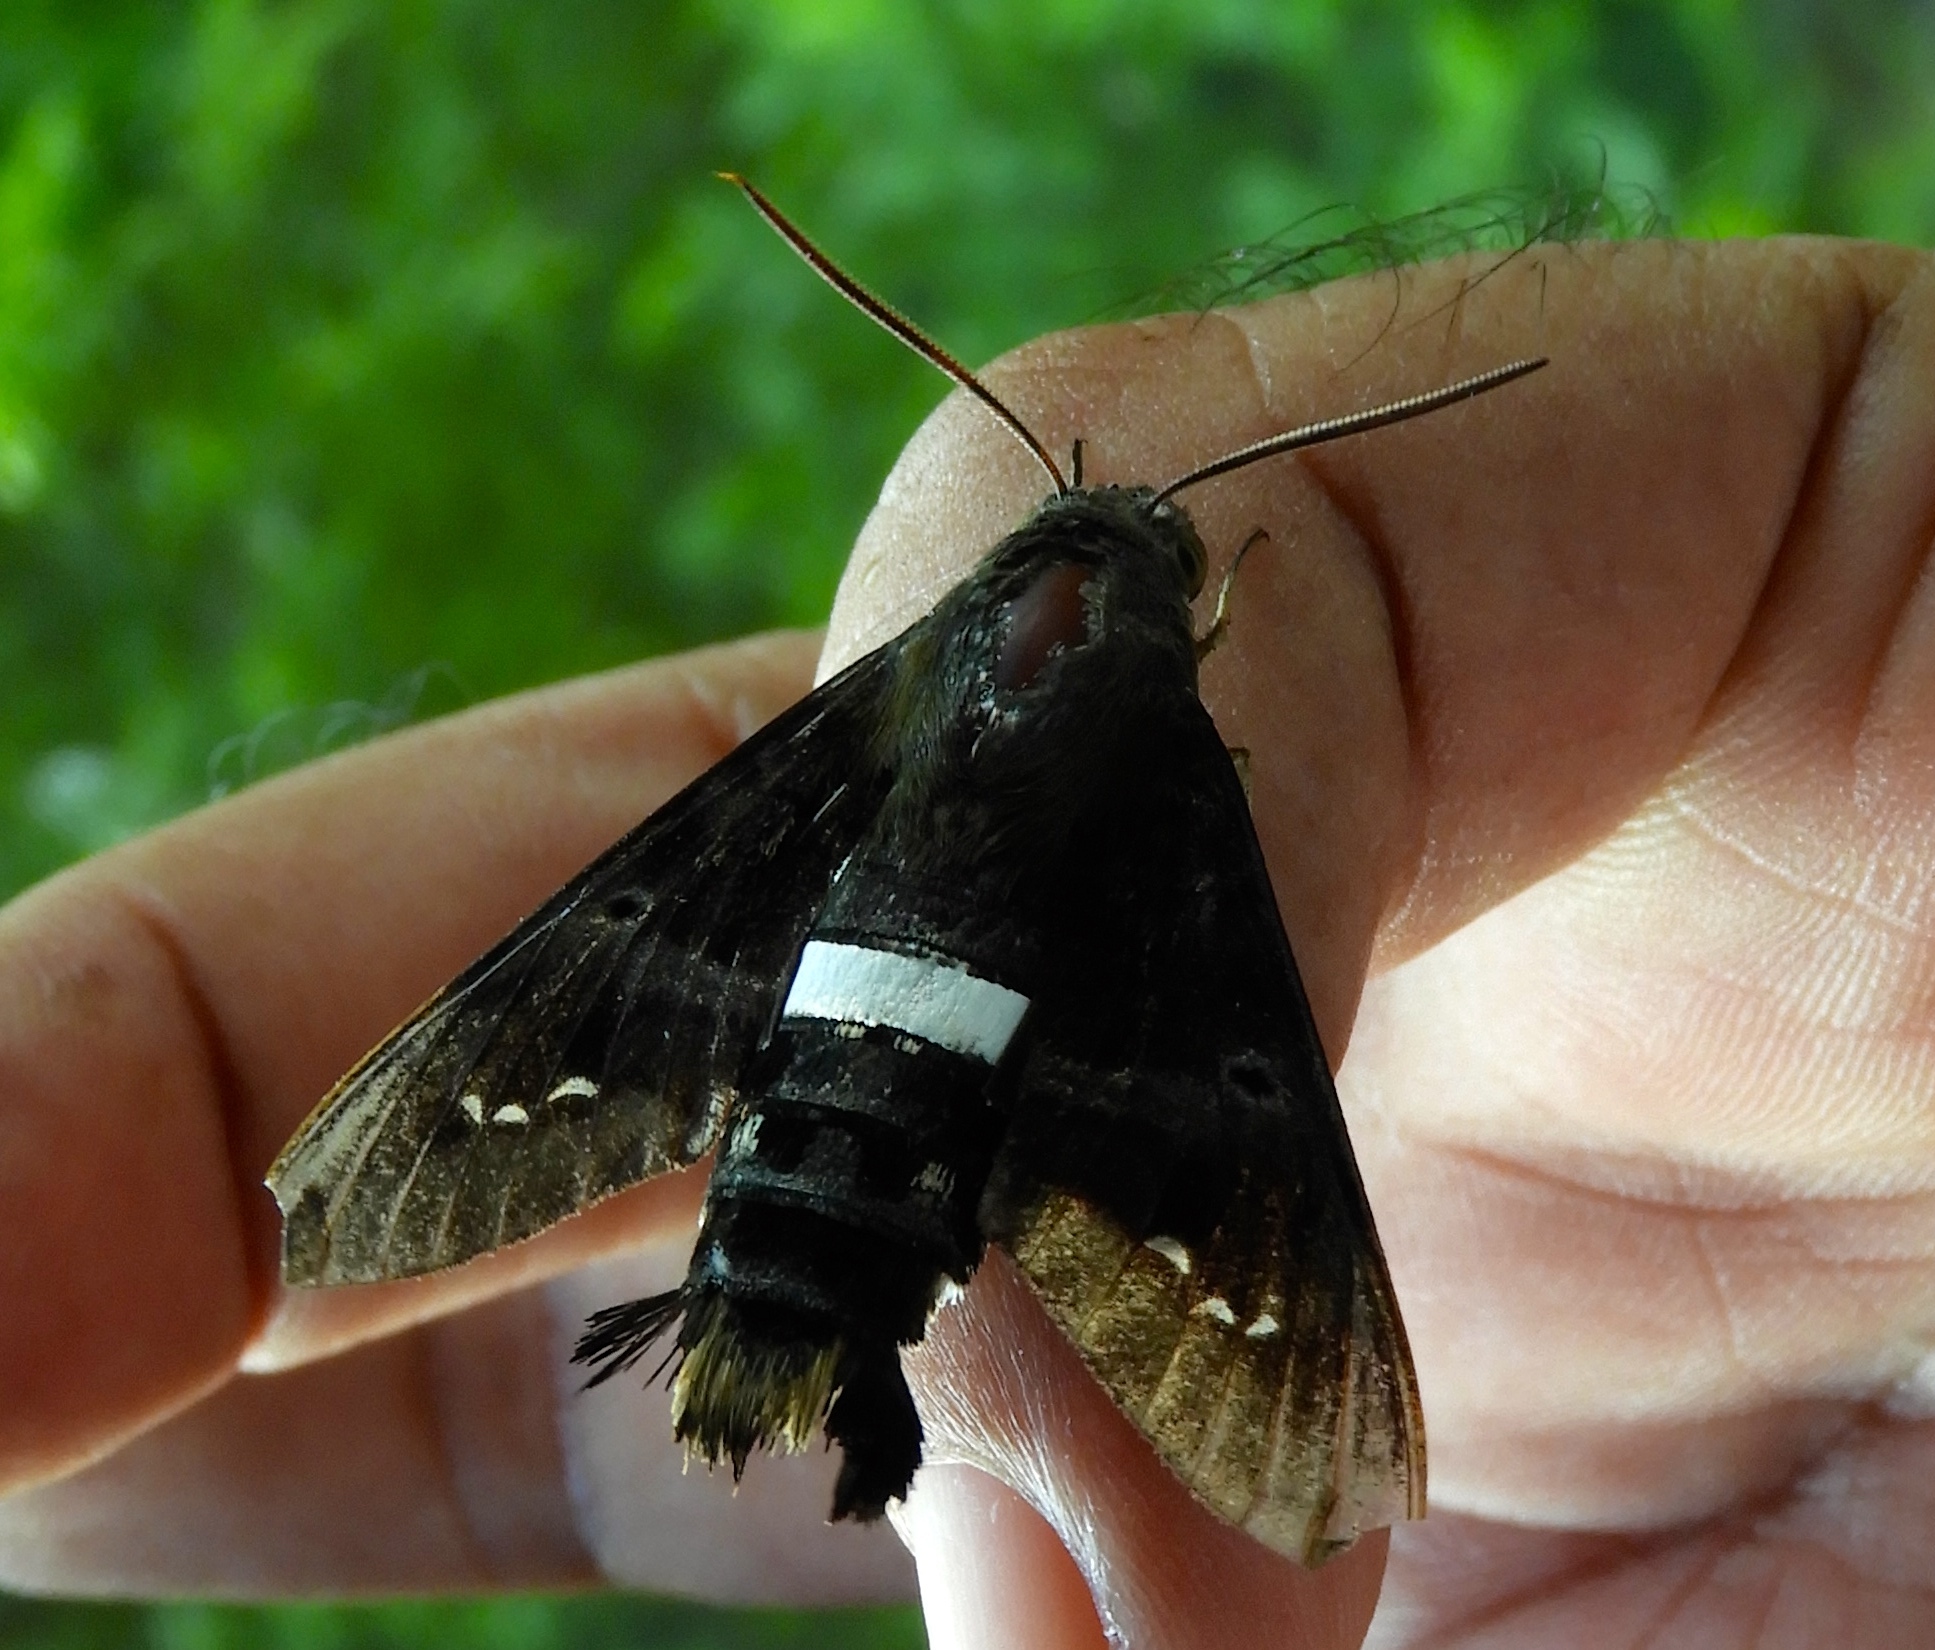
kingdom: Animalia
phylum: Arthropoda
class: Insecta
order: Lepidoptera
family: Sphingidae
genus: Aellopos
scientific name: Aellopos clavipes
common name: Clavipes sphinx
